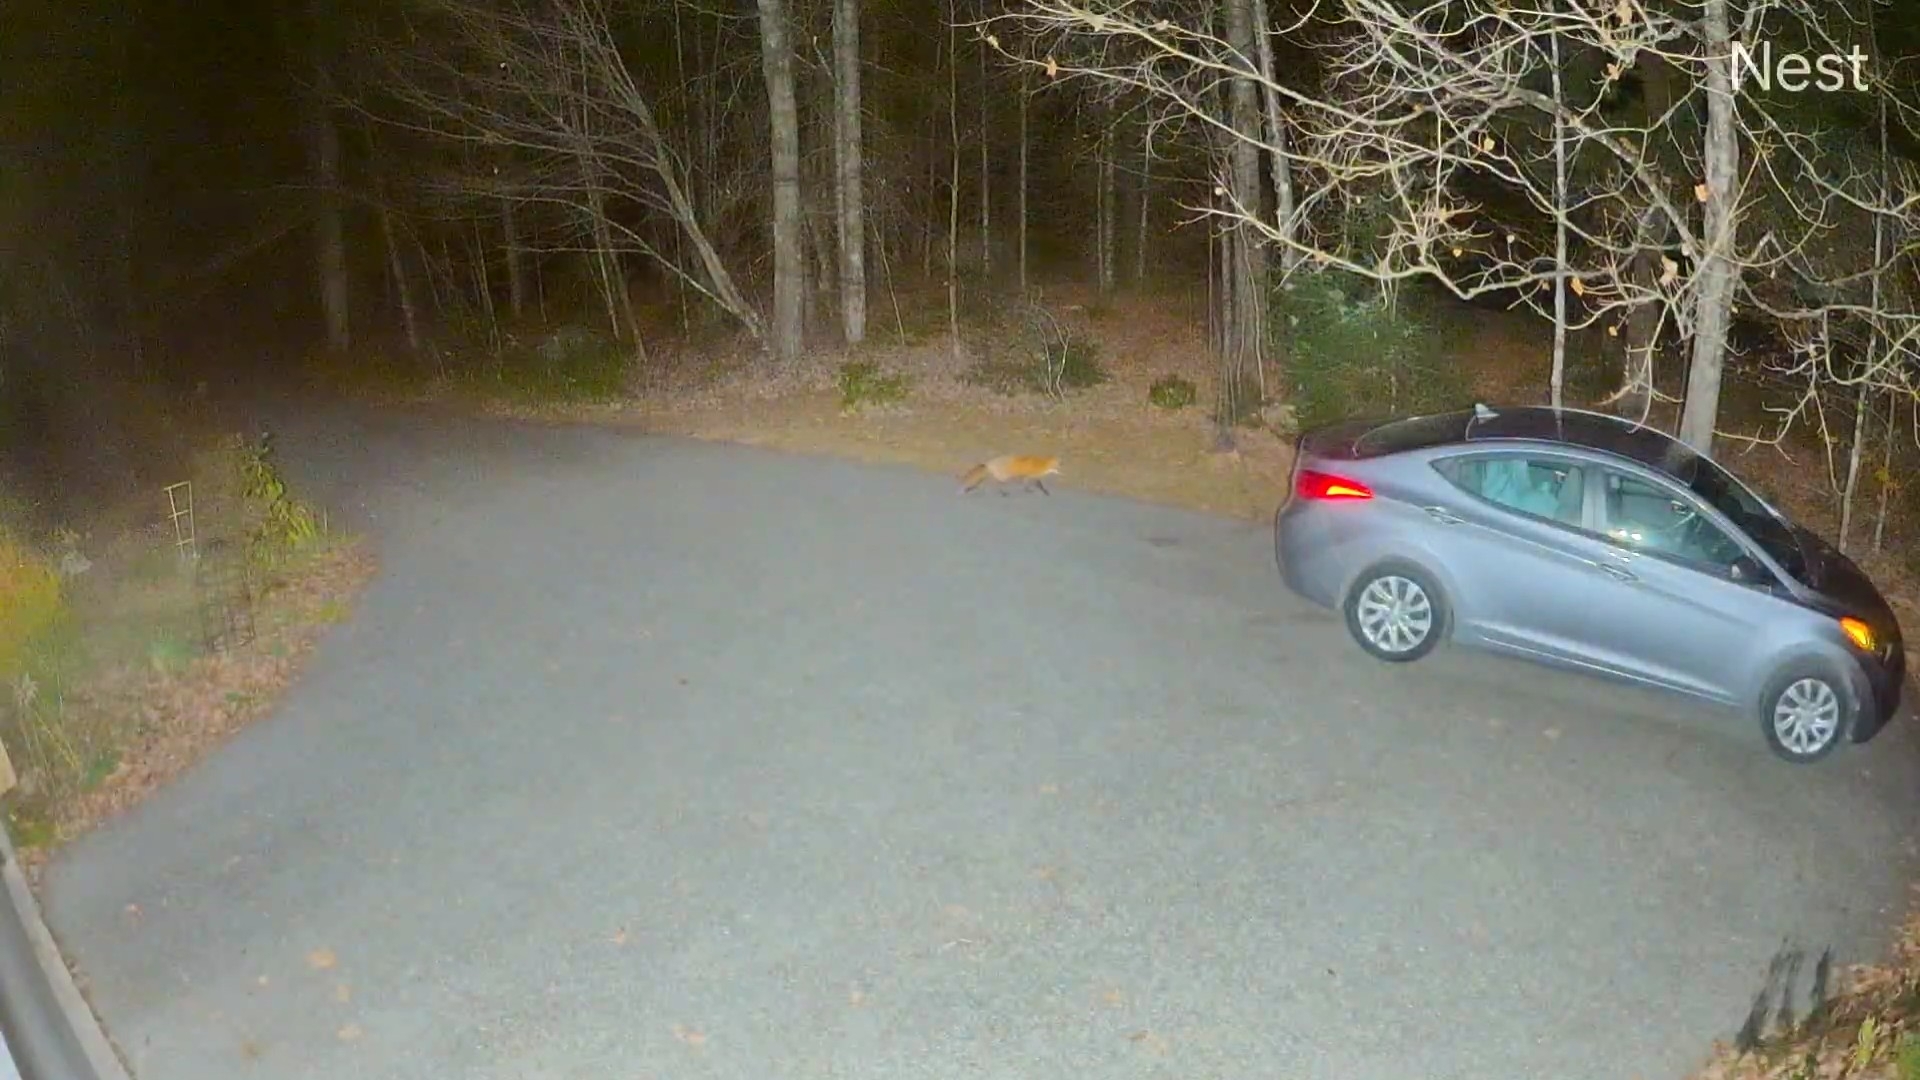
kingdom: Animalia
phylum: Chordata
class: Mammalia
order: Carnivora
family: Canidae
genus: Vulpes
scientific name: Vulpes vulpes
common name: Red fox
